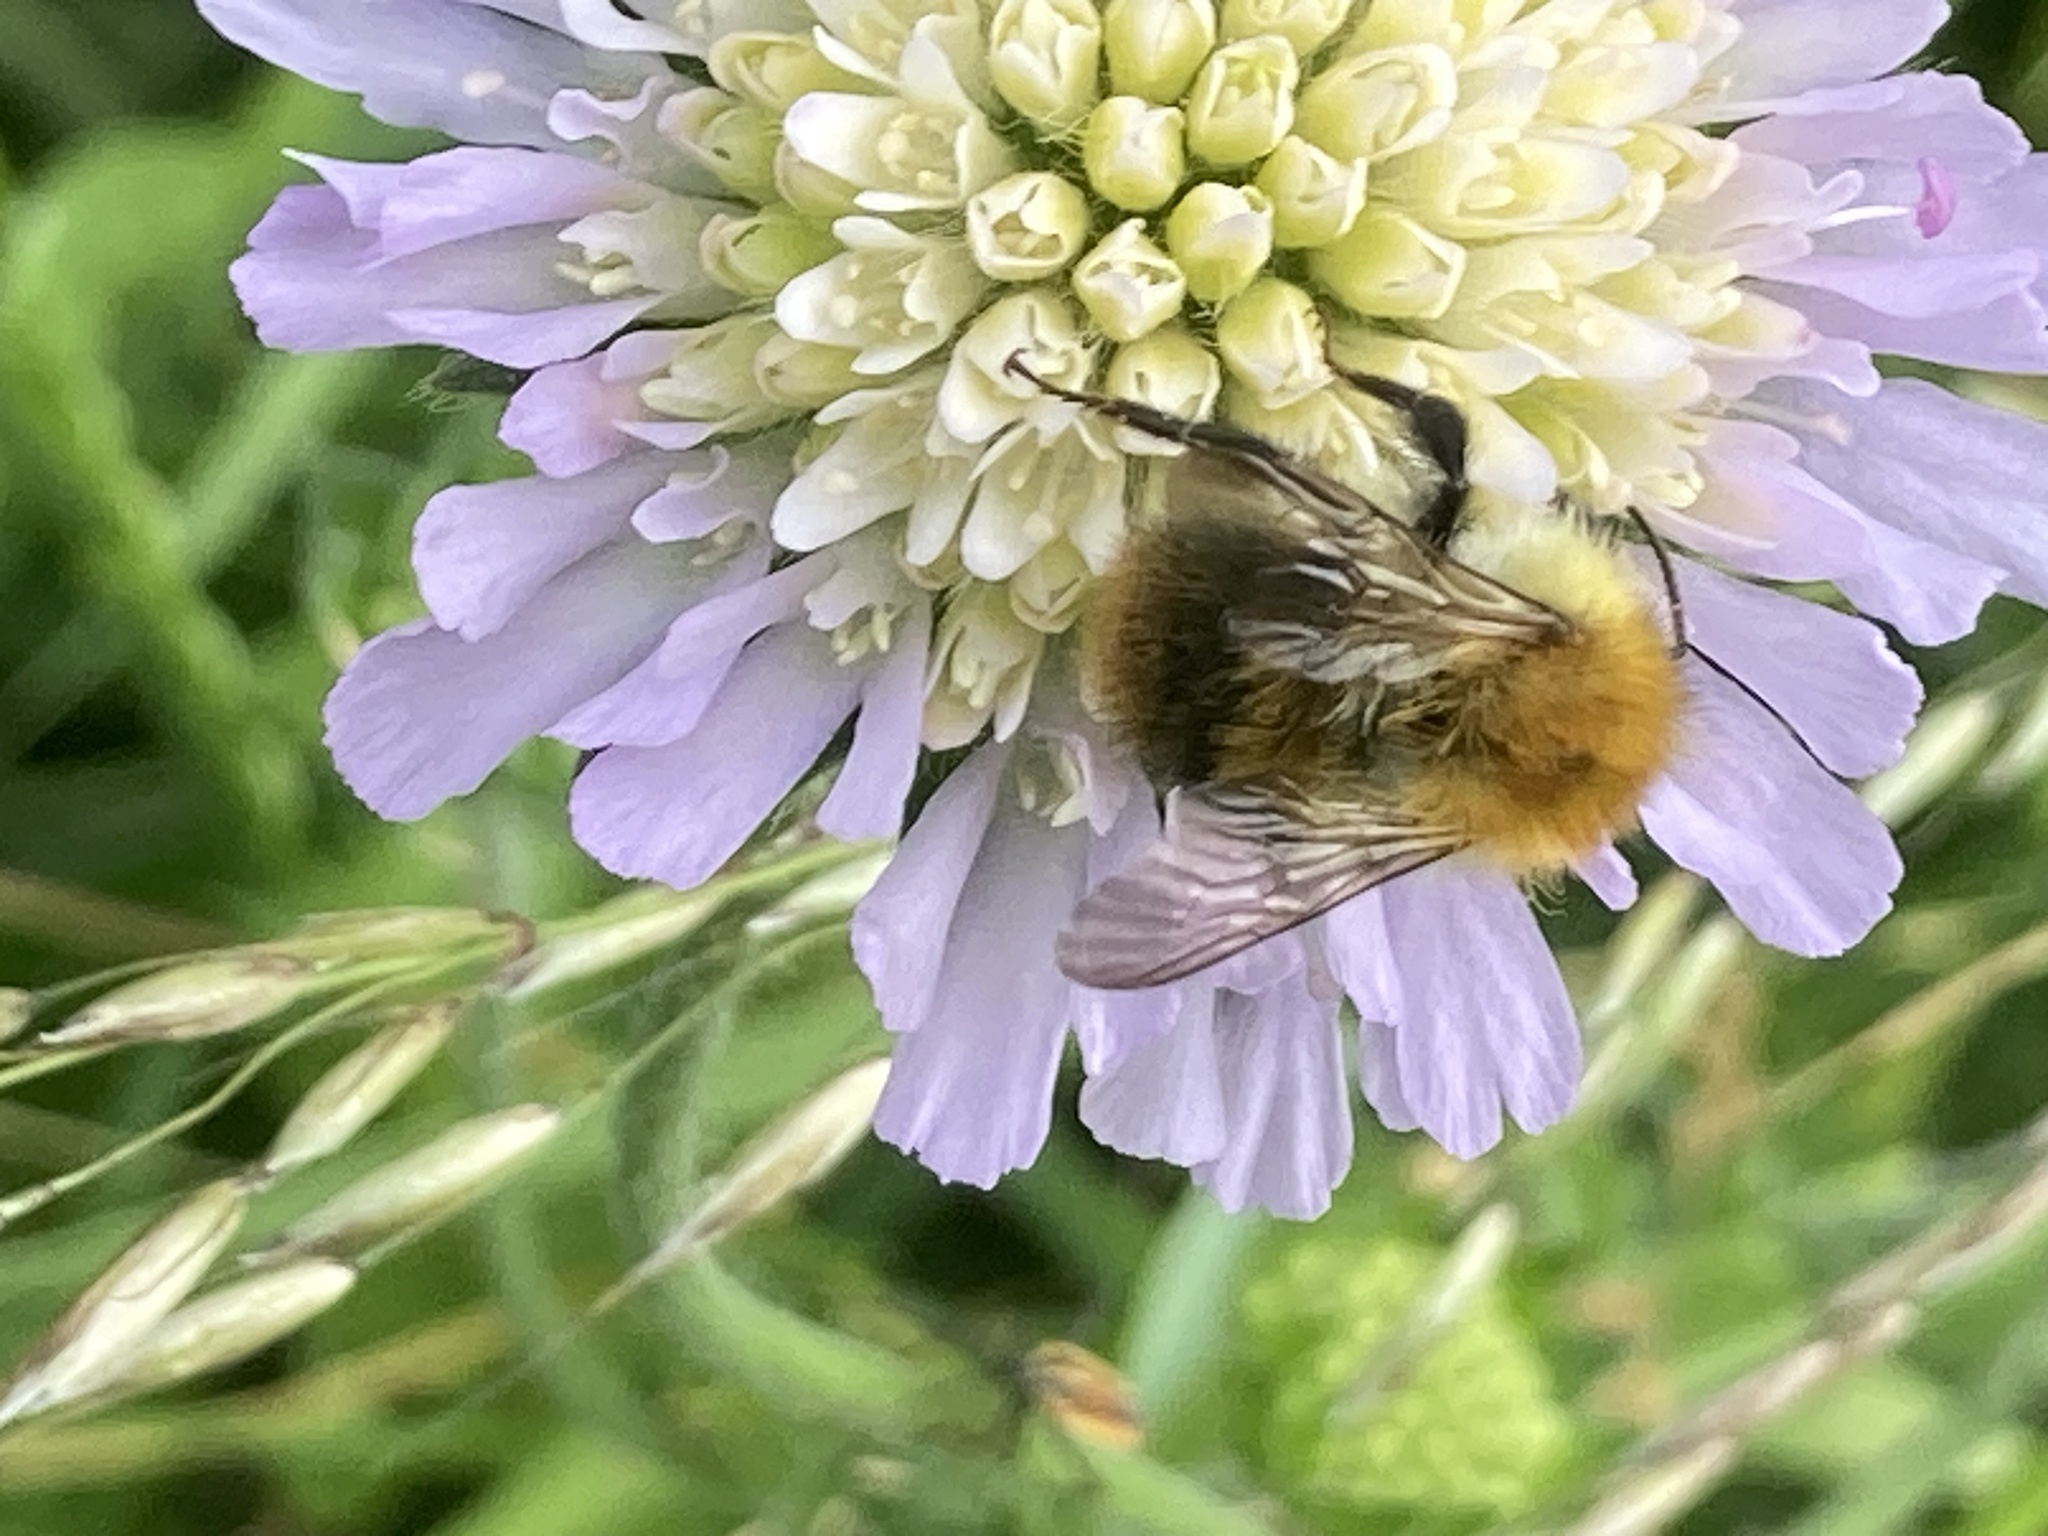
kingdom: Animalia
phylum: Arthropoda
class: Insecta
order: Hymenoptera
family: Apidae
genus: Bombus
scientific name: Bombus pascuorum
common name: Common carder bee
